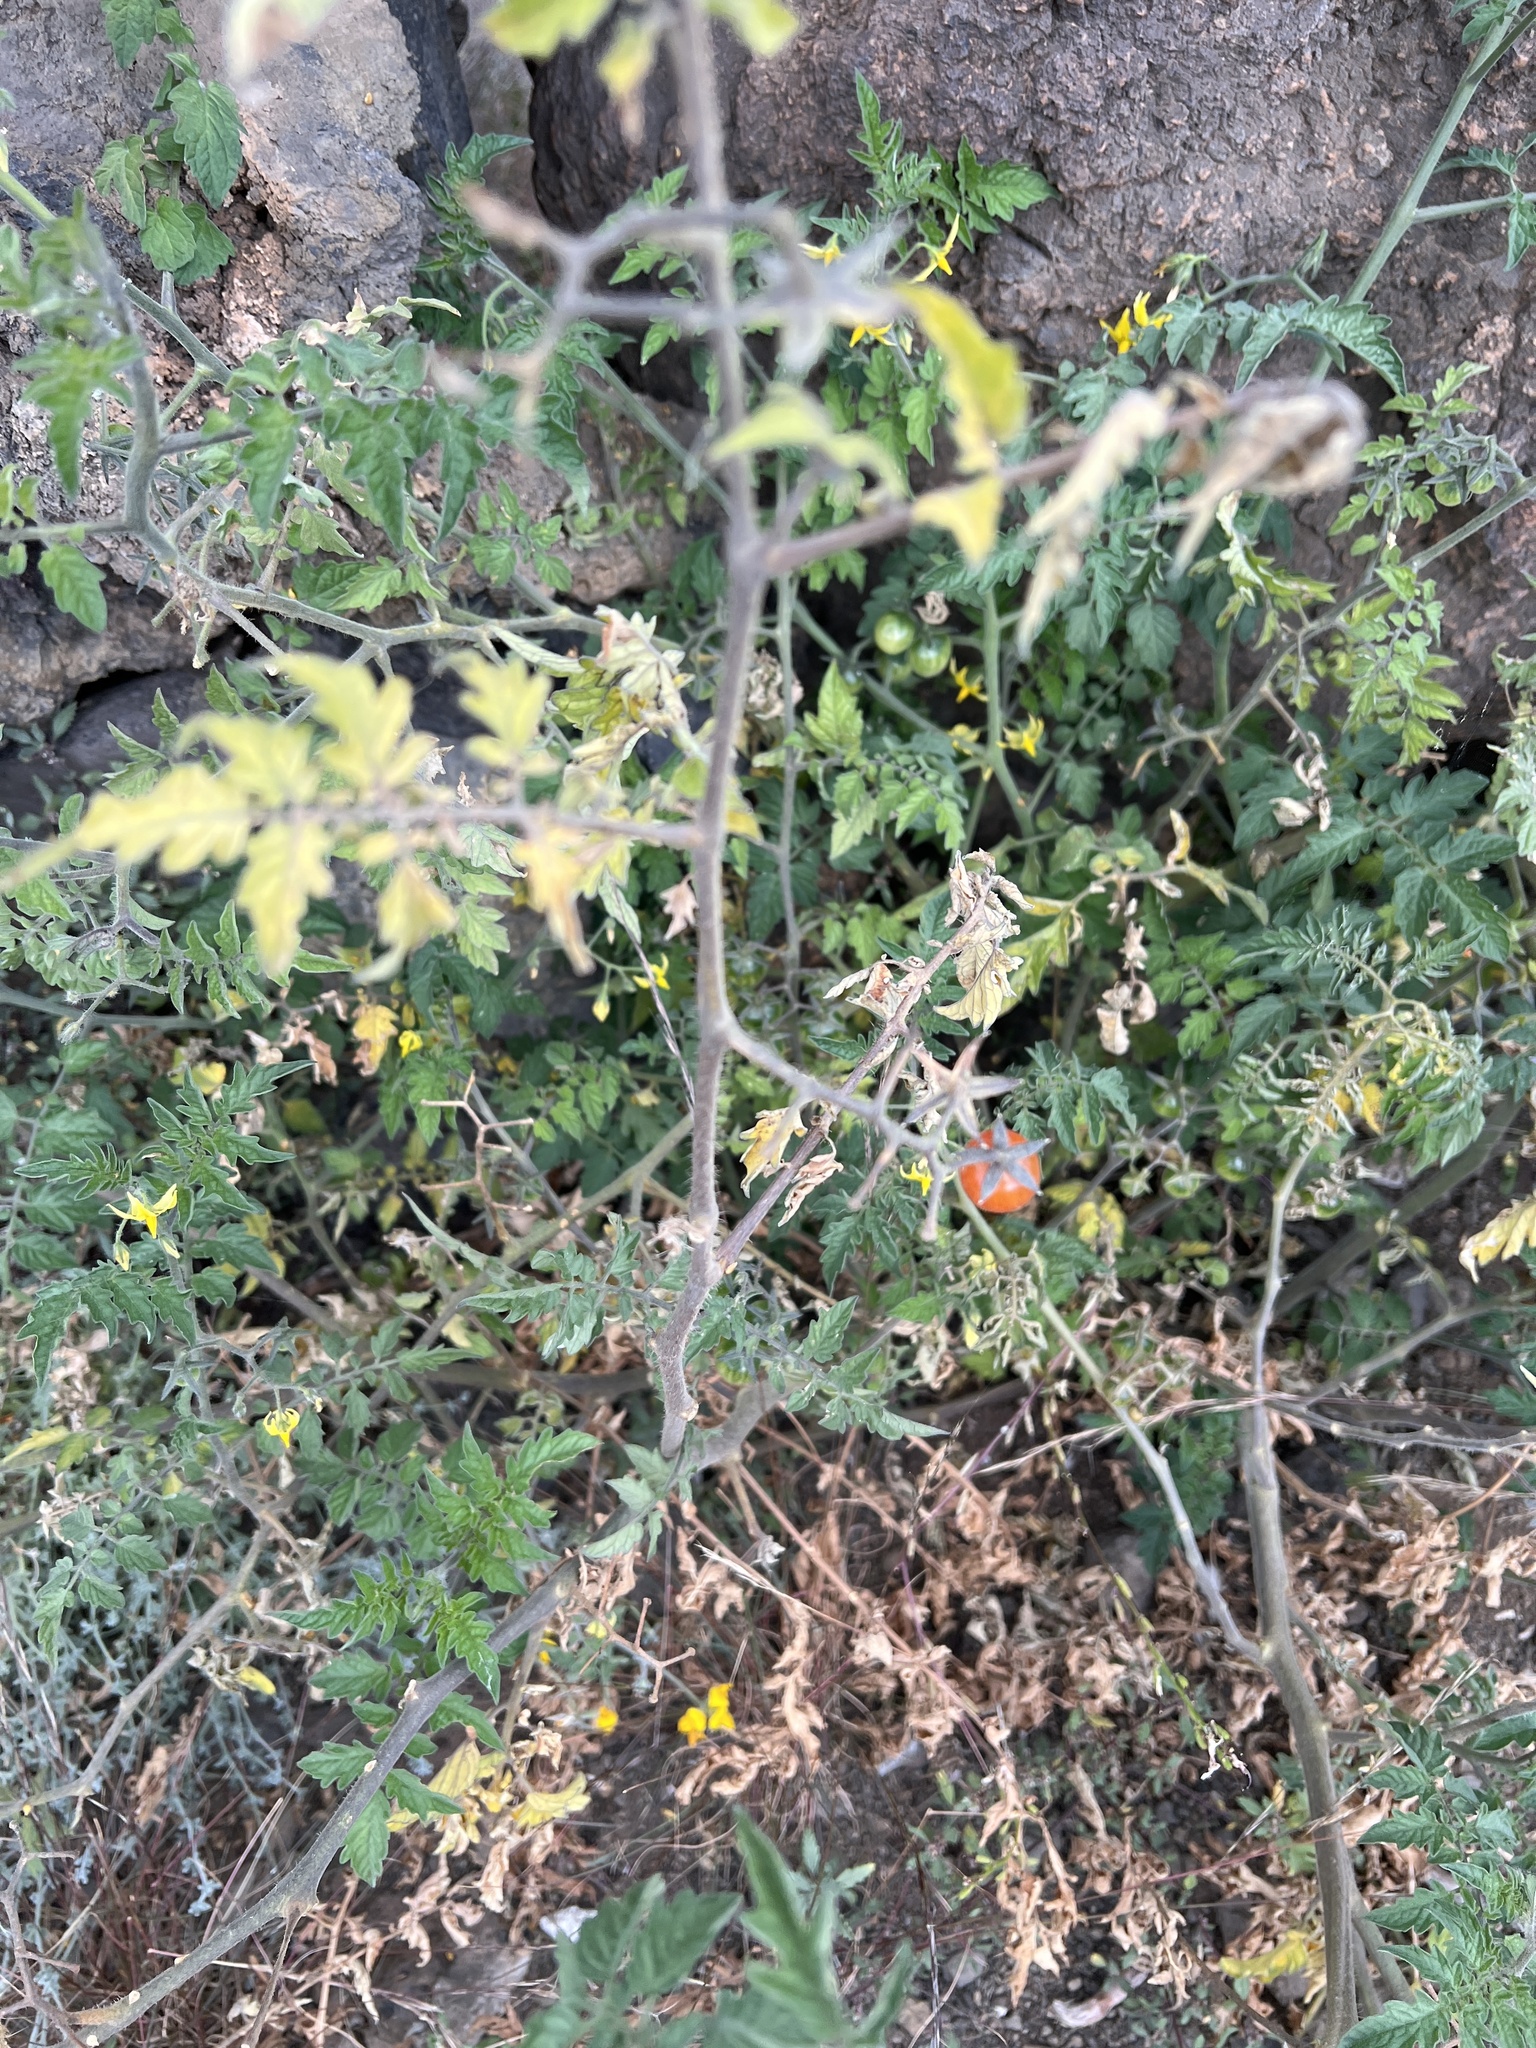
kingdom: Plantae
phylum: Tracheophyta
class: Magnoliopsida
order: Solanales
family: Solanaceae
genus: Solanum
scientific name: Solanum lycopersicum
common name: Garden tomato
